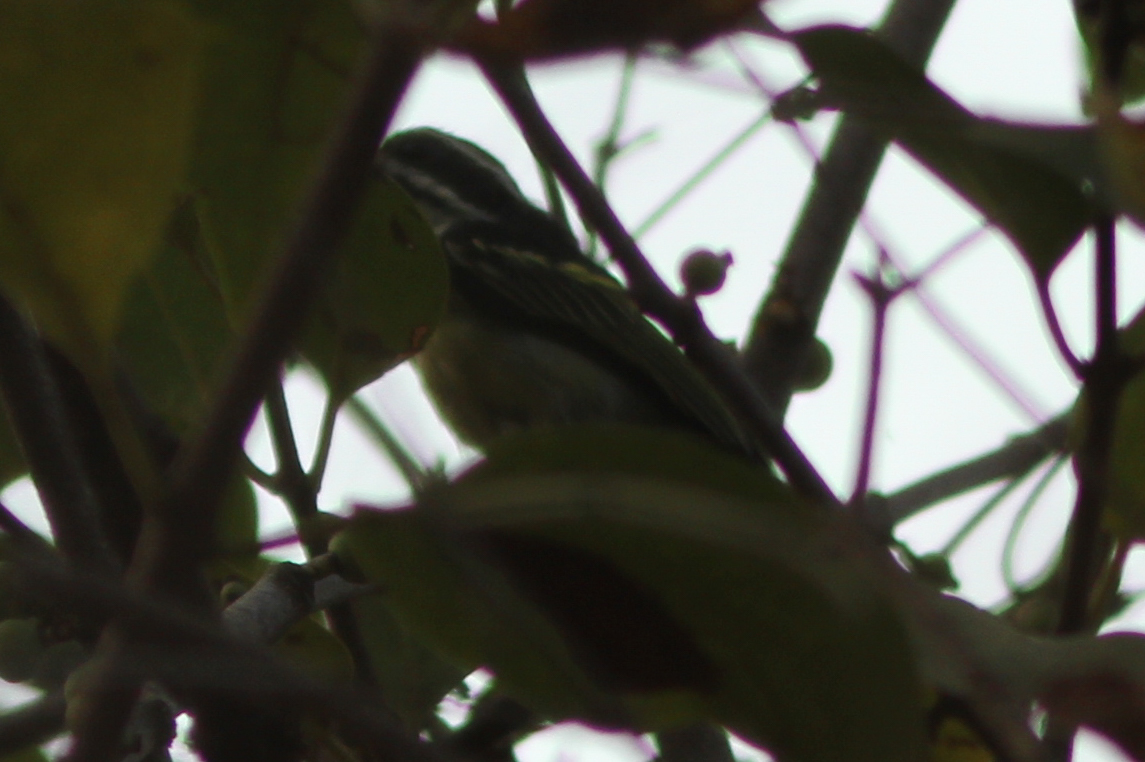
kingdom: Animalia
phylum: Chordata
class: Aves
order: Piciformes
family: Lybiidae
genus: Pogoniulus
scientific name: Pogoniulus bilineatus
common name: Yellow-rumped tinkerbird
